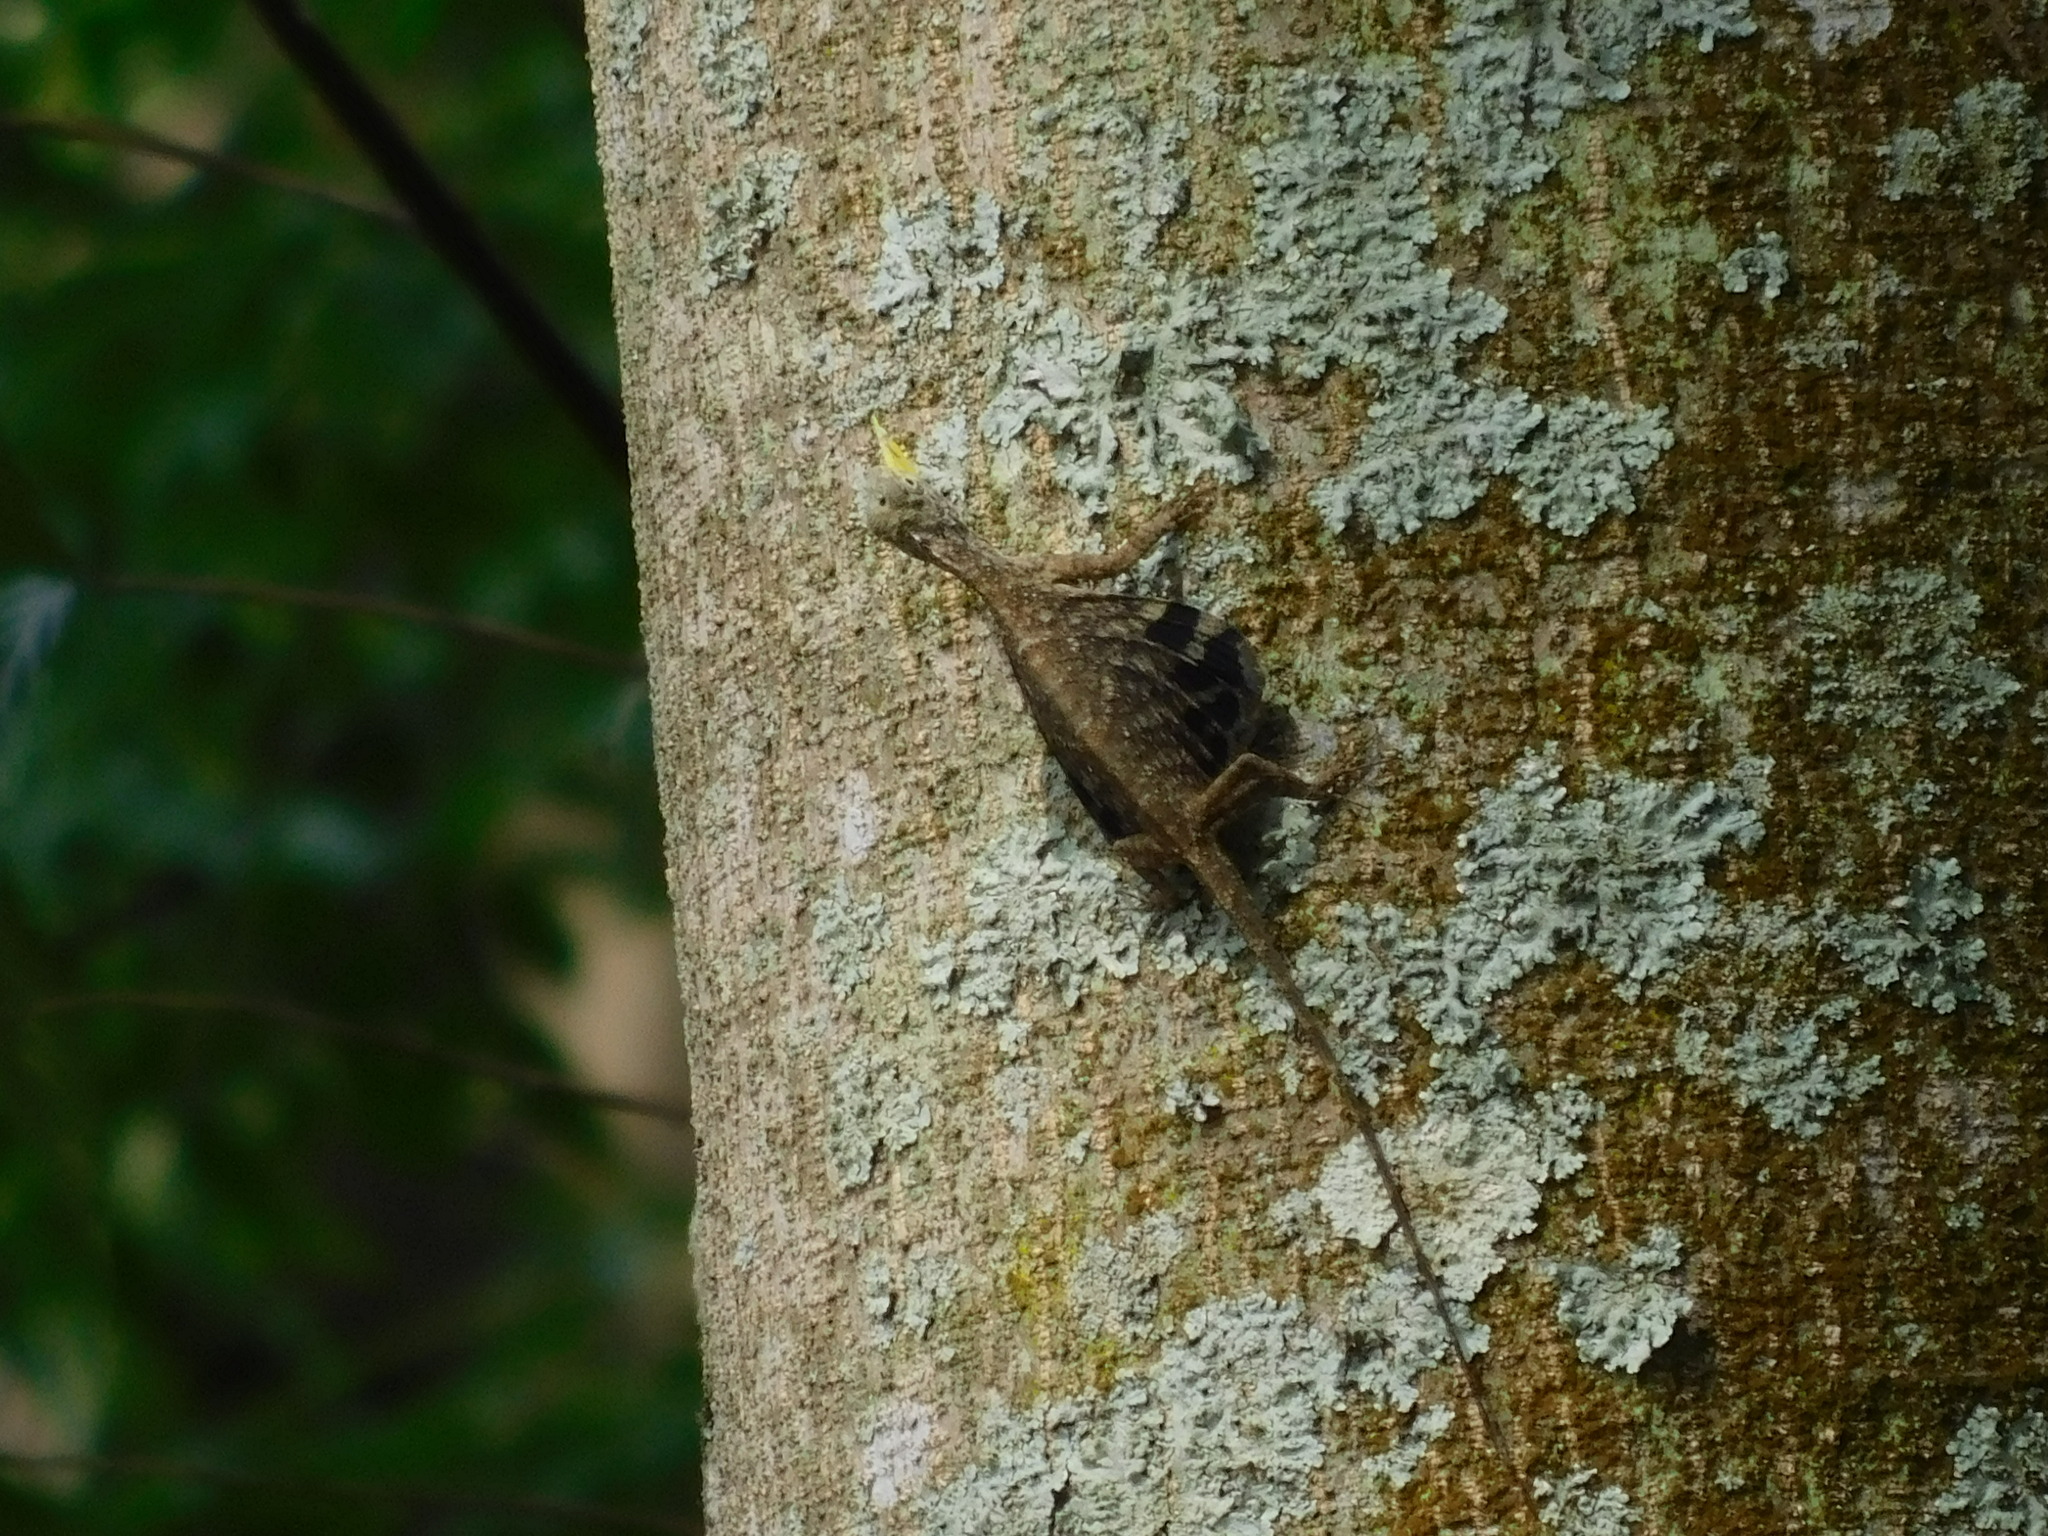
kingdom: Animalia
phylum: Chordata
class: Squamata
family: Agamidae
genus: Draco
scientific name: Draco volans
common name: Common flying dragon
